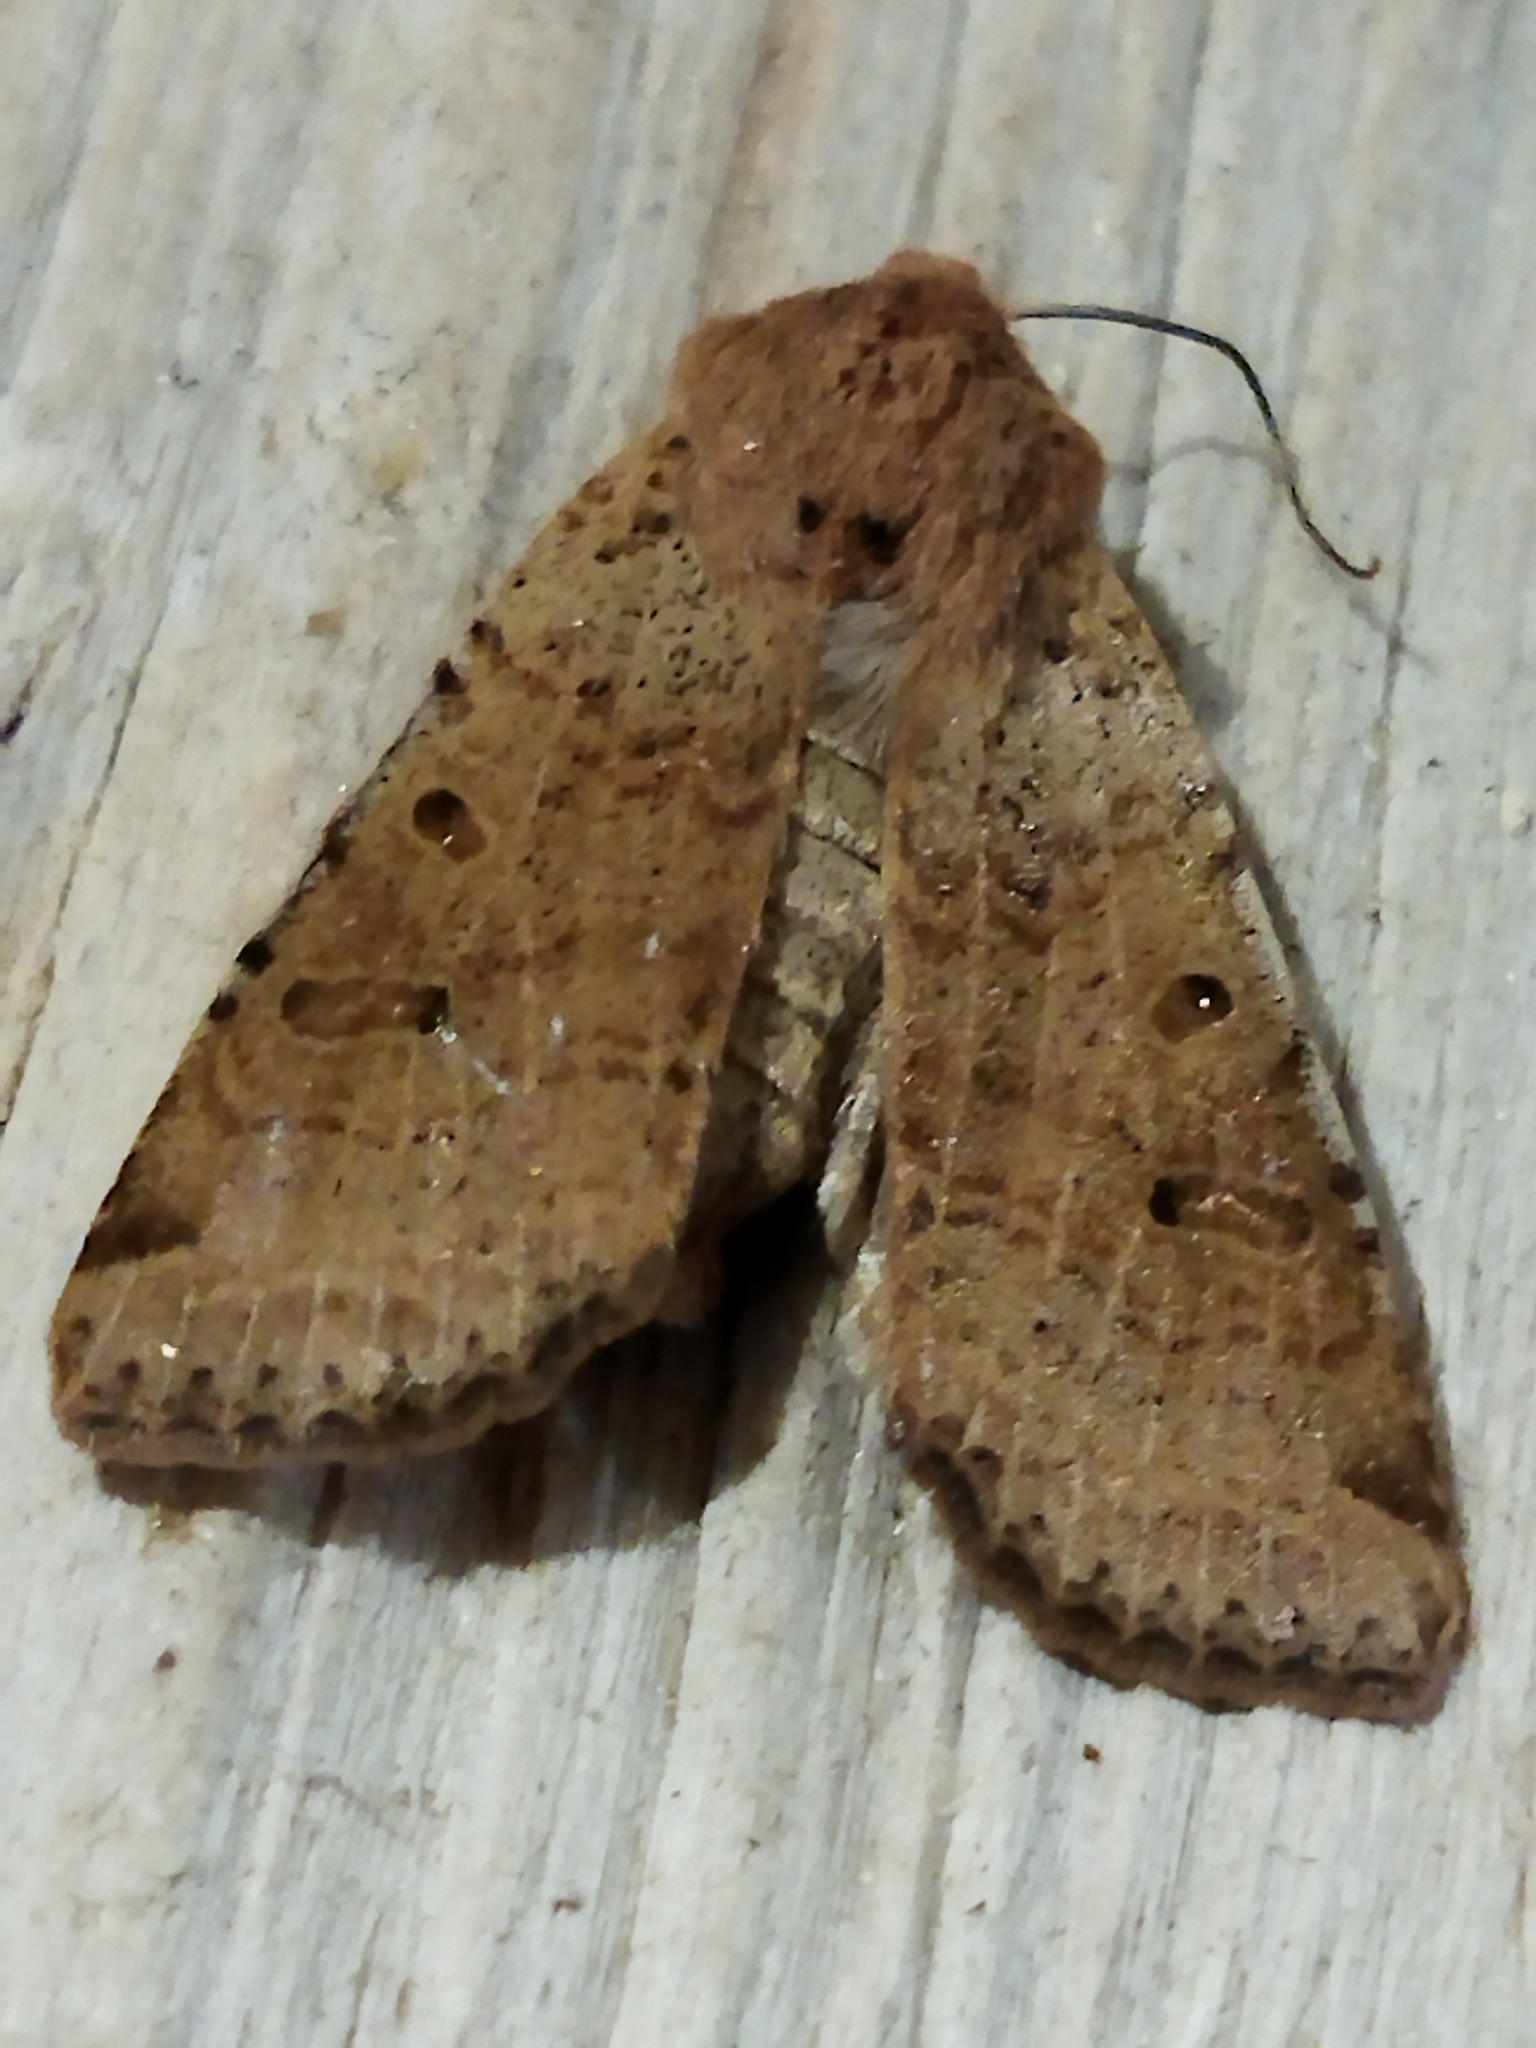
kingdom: Animalia
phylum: Arthropoda
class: Insecta
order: Lepidoptera
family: Noctuidae
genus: Agrochola
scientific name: Agrochola lychnidis
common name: Beaded chestnut
